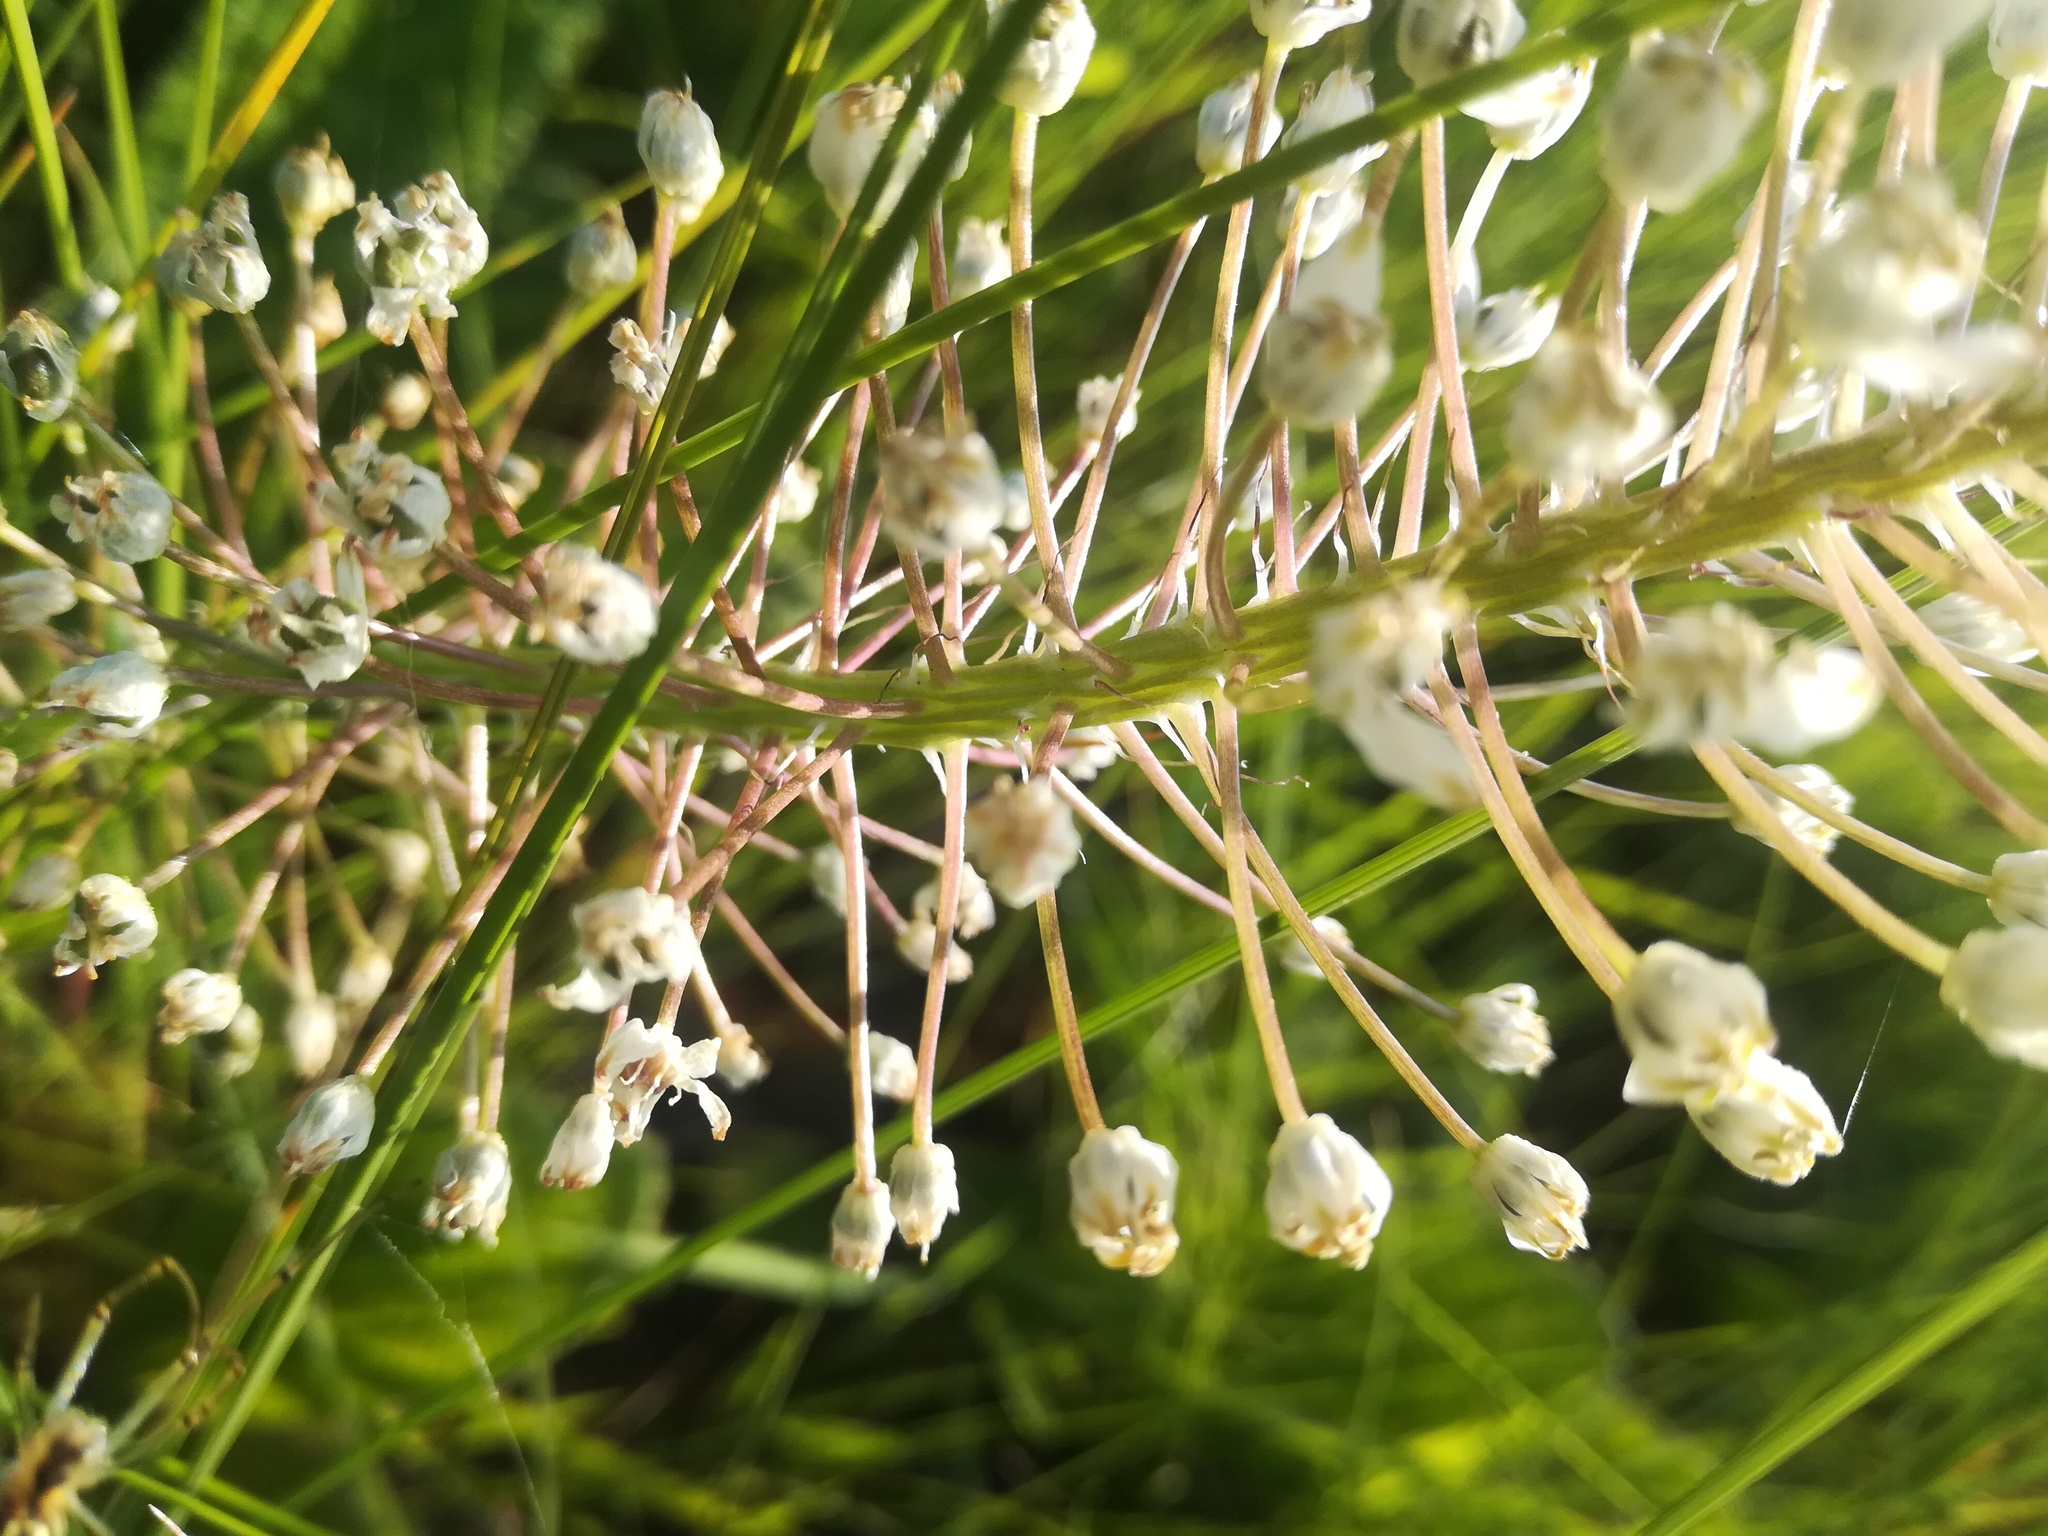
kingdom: Plantae
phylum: Tracheophyta
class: Liliopsida
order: Asparagales
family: Asparagaceae
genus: Schizocarphus
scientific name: Schizocarphus nervosus
